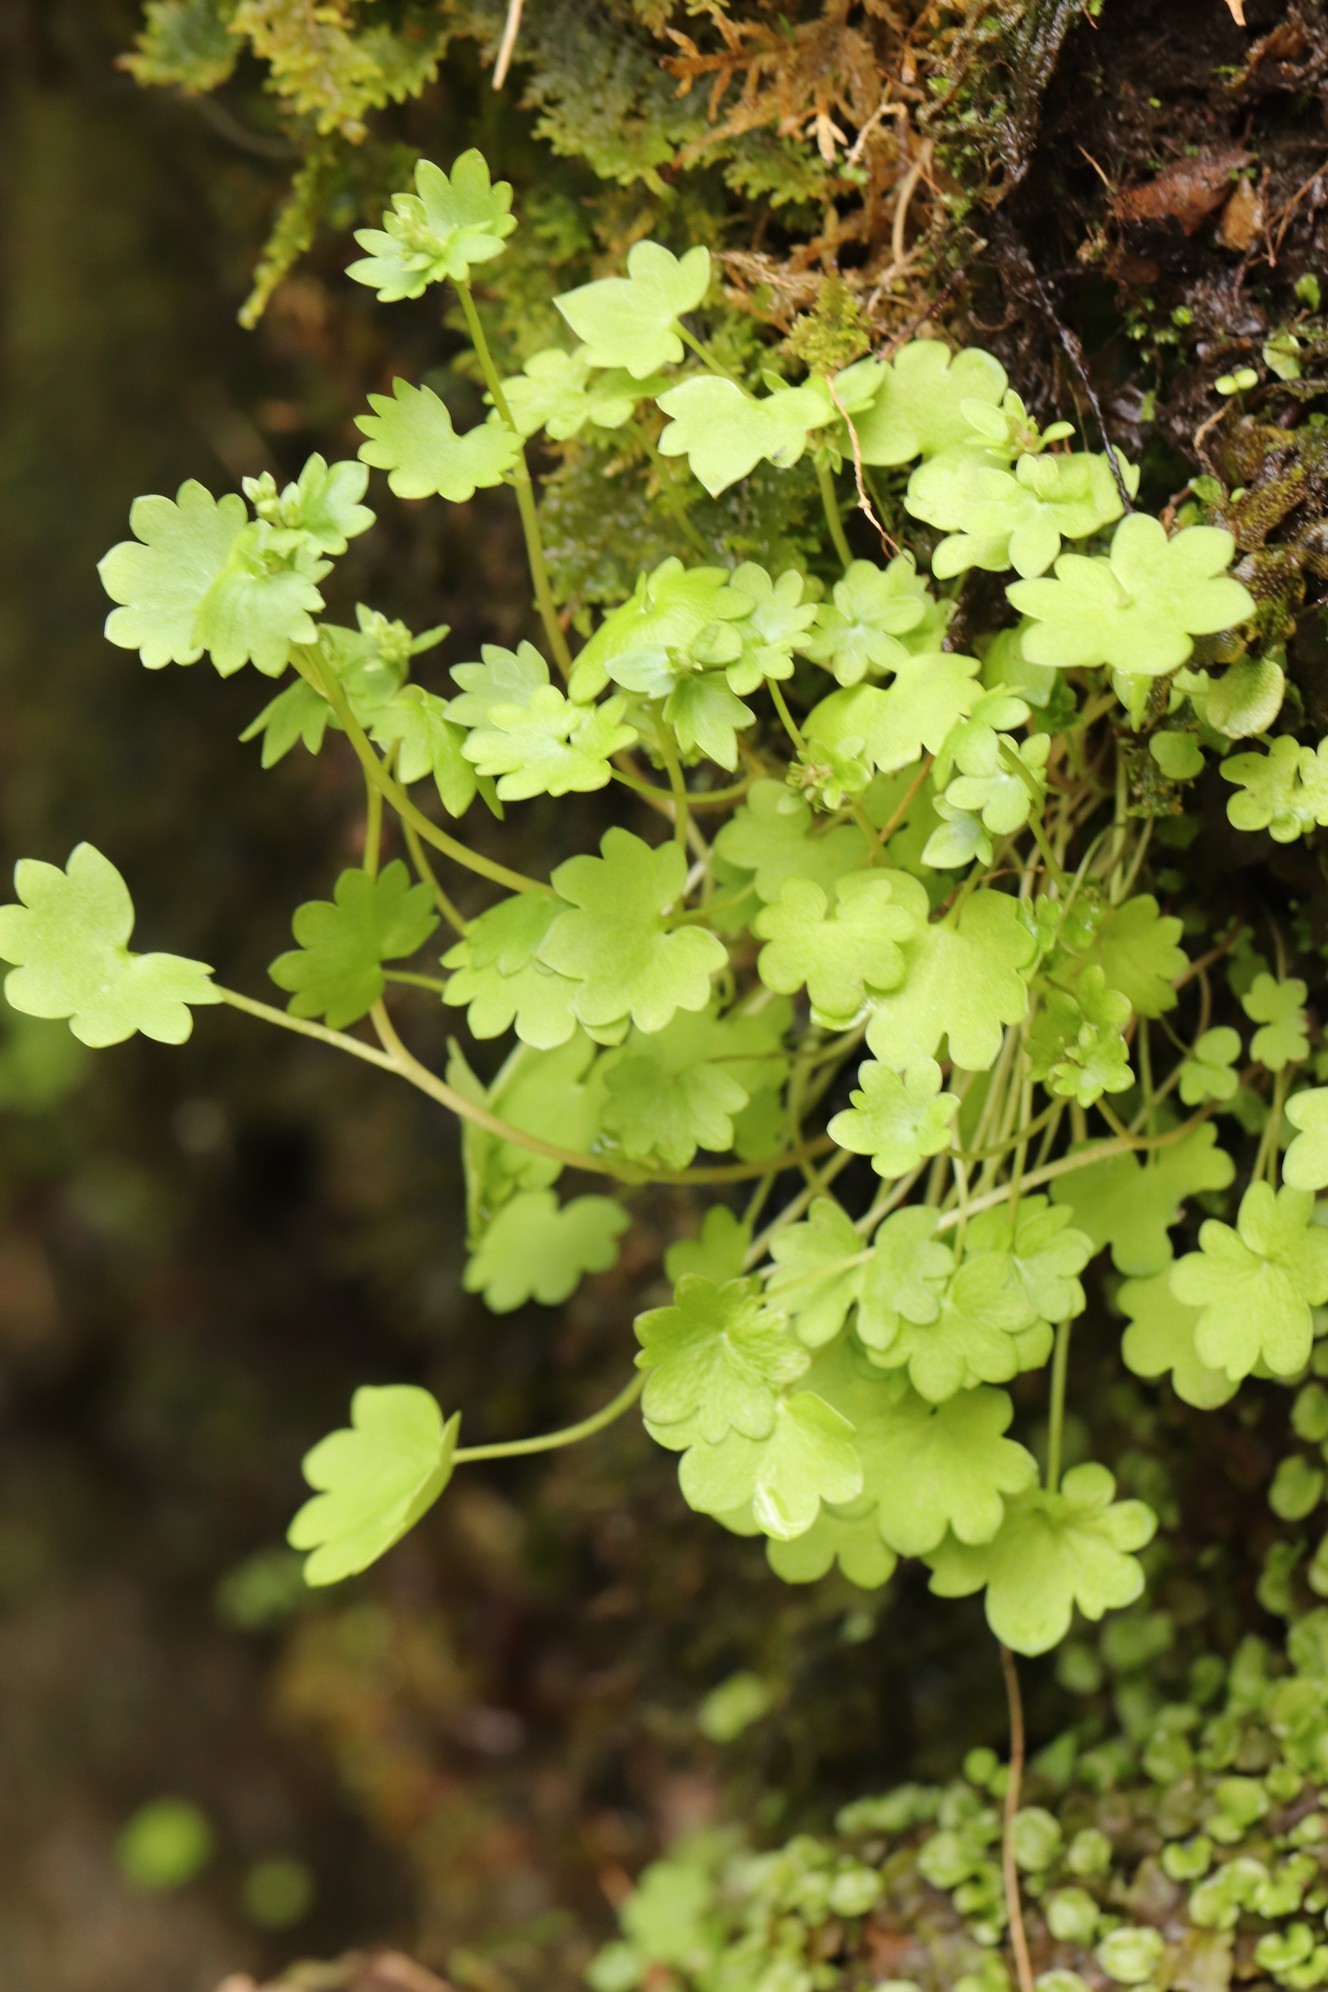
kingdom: Plantae
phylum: Tracheophyta
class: Magnoliopsida
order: Saxifragales
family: Saxifragaceae
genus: Saxifraga
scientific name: Saxifraga sibirica
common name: Siberian saxifrage
